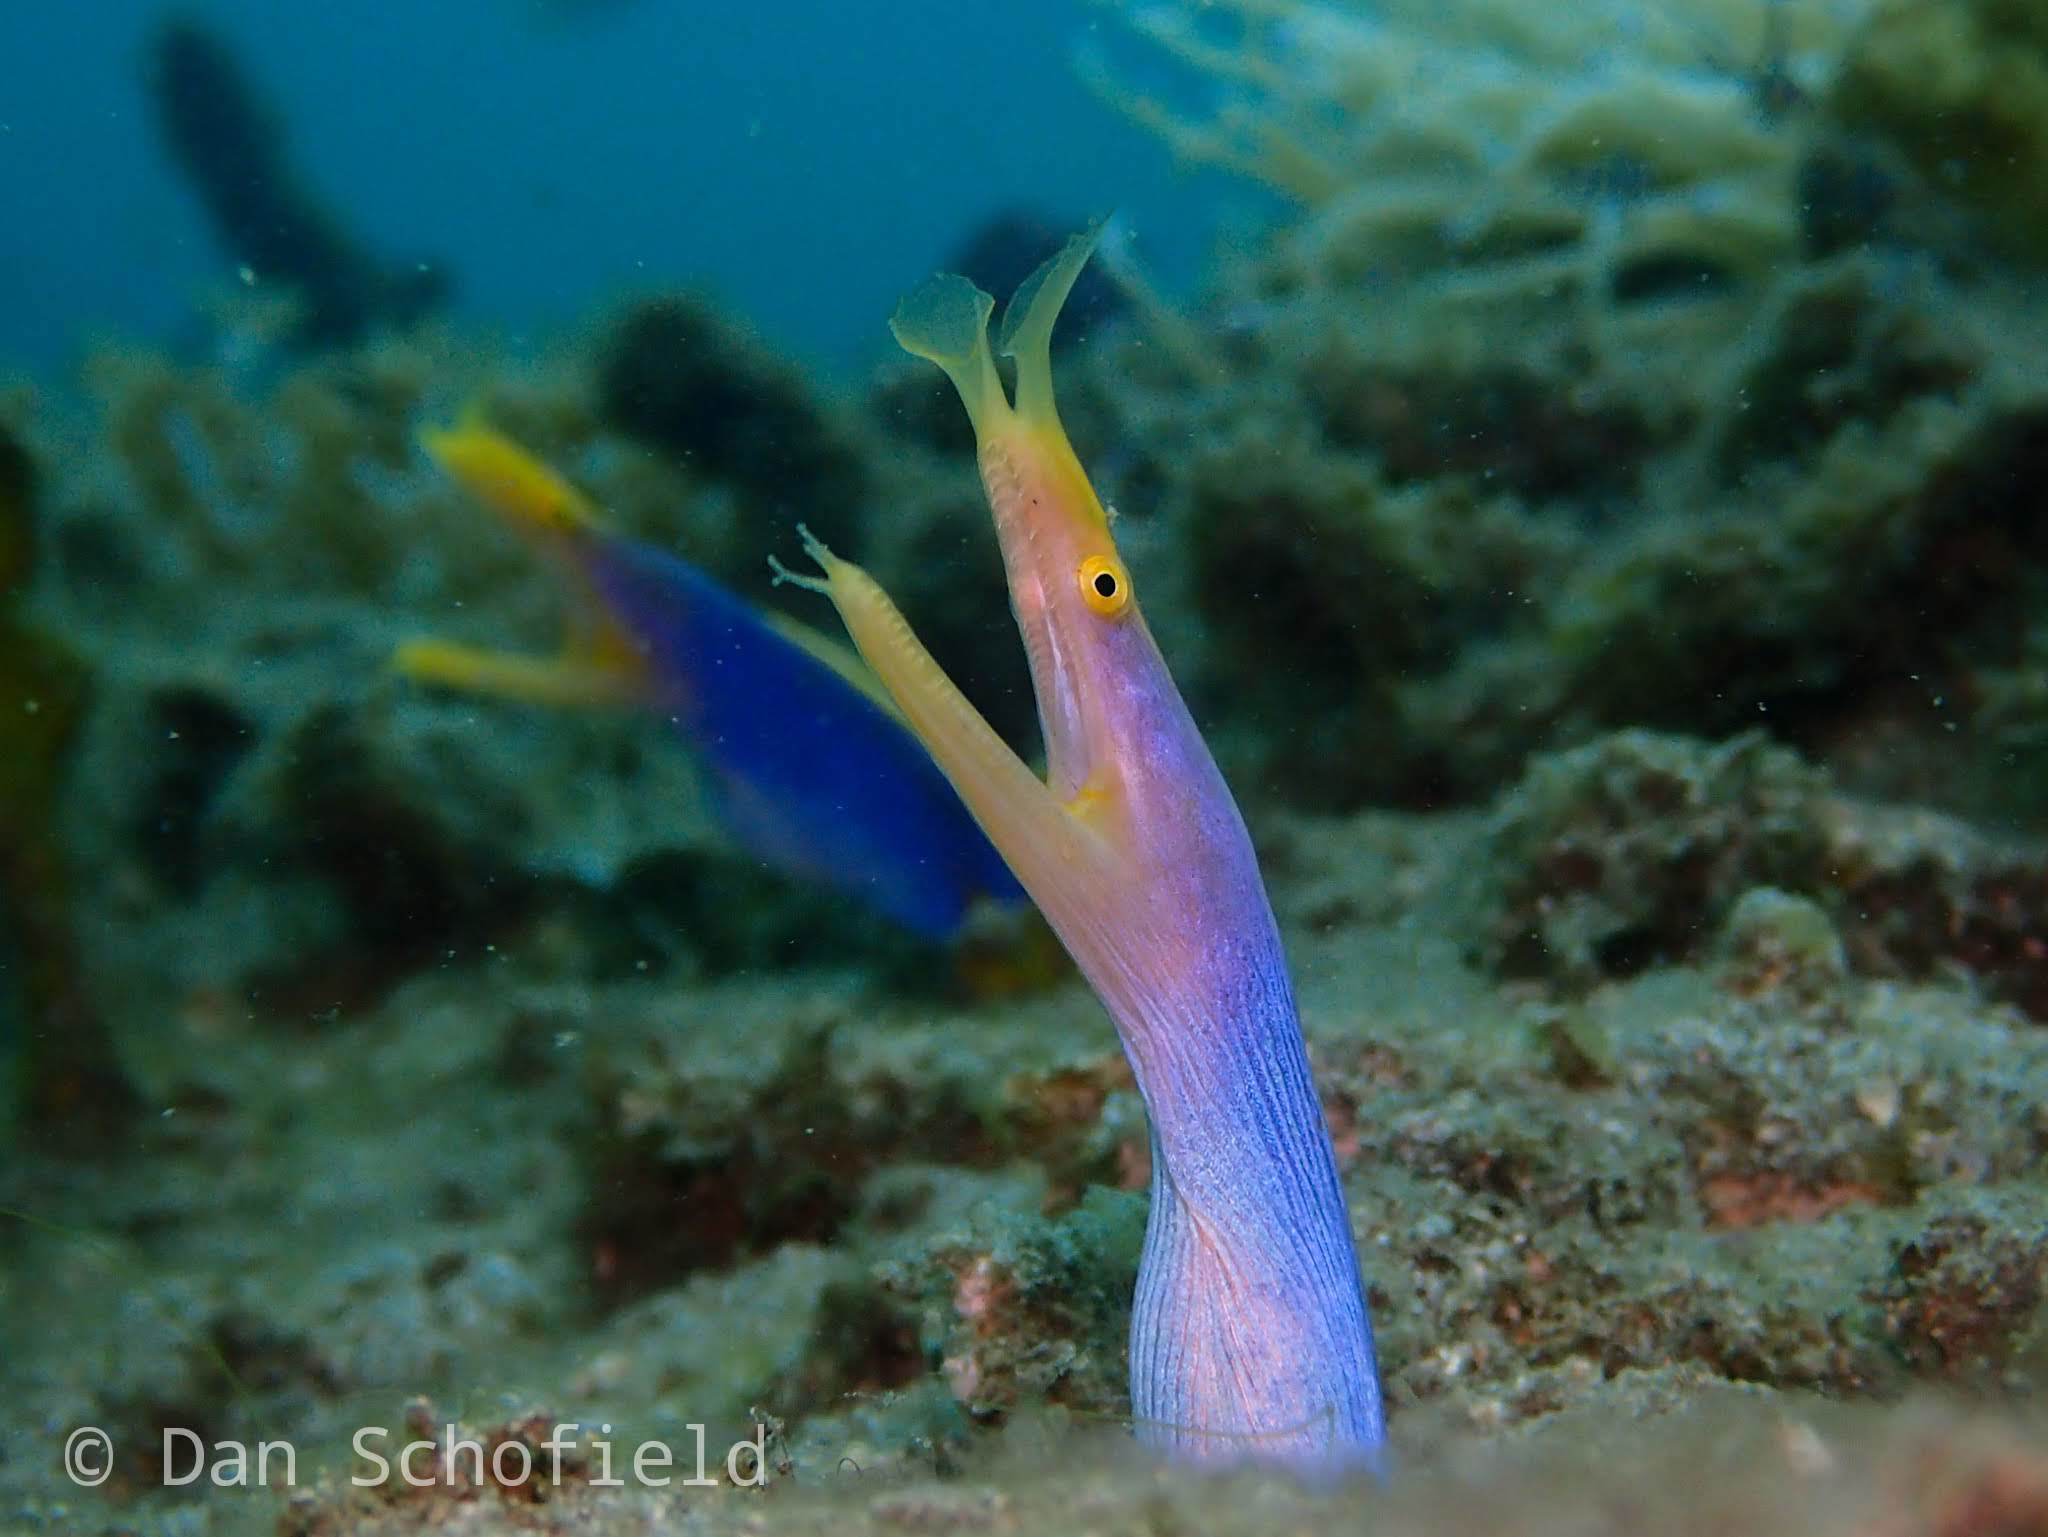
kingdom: Animalia
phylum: Chordata
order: Anguilliformes
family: Muraenidae
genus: Rhinomuraena
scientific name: Rhinomuraena quaesita
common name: Ribbon eel
